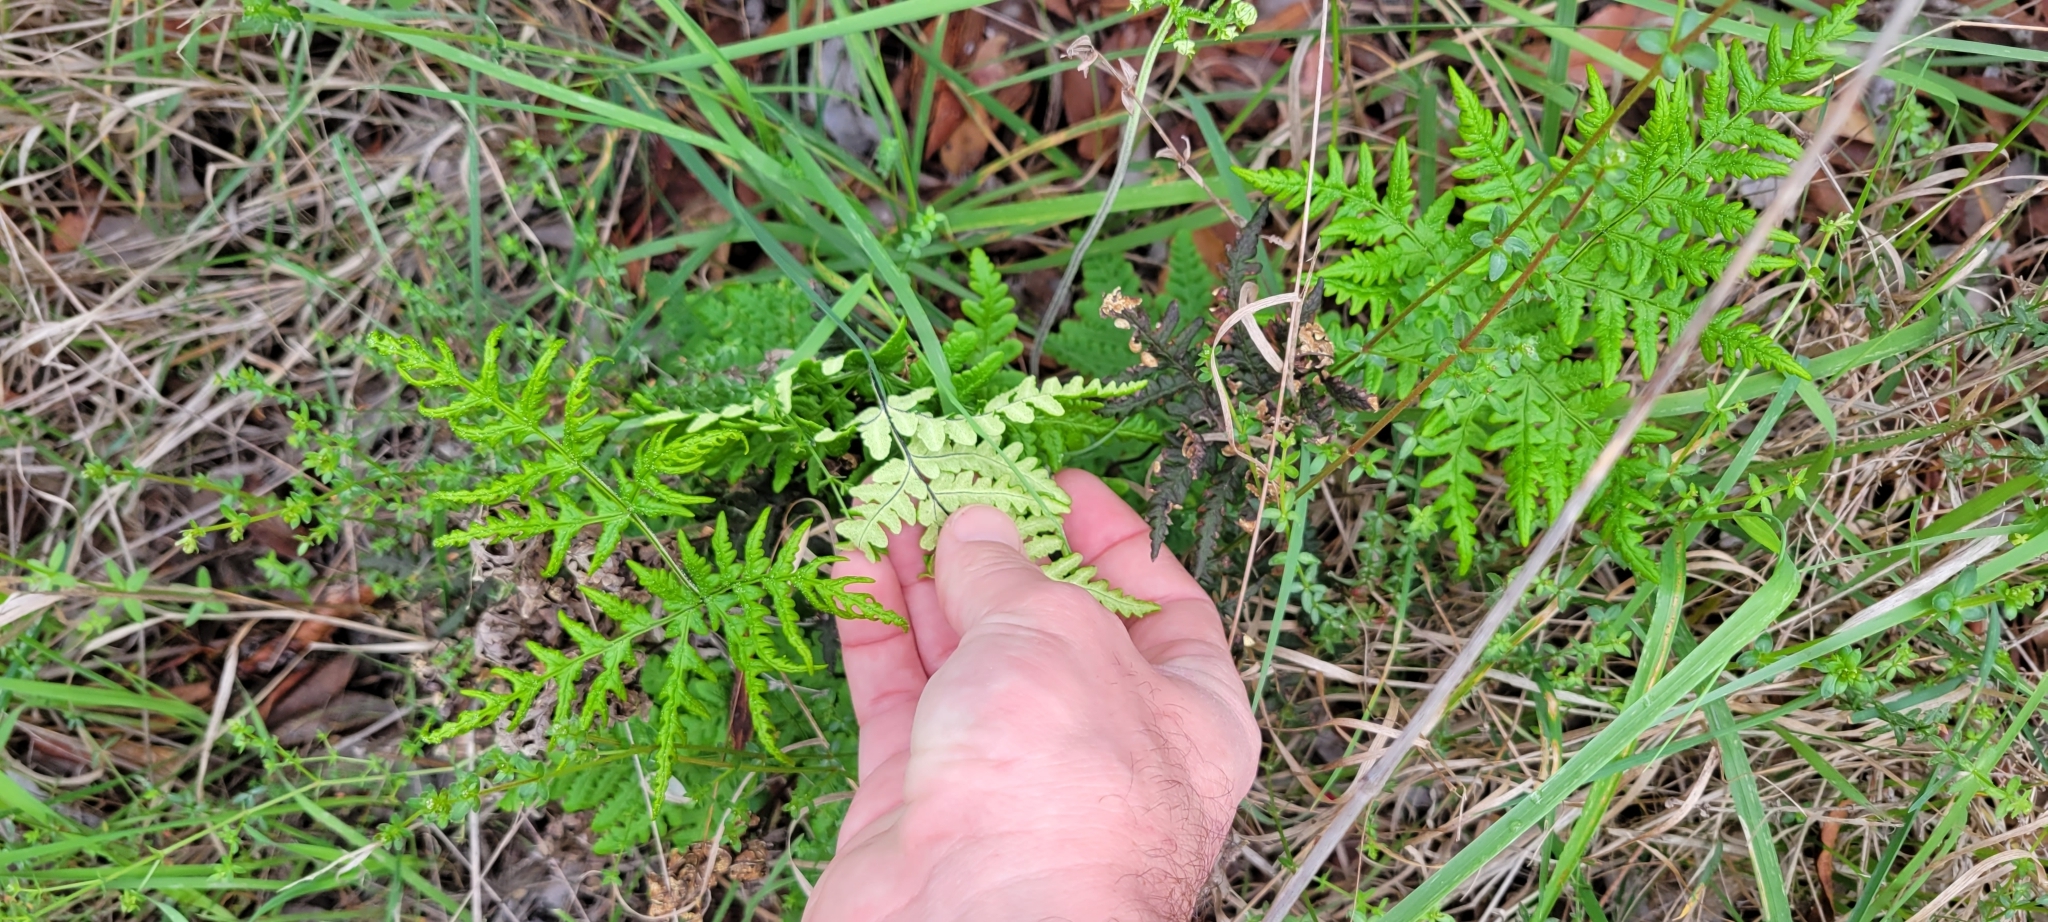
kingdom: Plantae
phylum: Tracheophyta
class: Polypodiopsida
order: Polypodiales
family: Pteridaceae
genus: Pentagramma
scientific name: Pentagramma triangularis
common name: Gold fern
